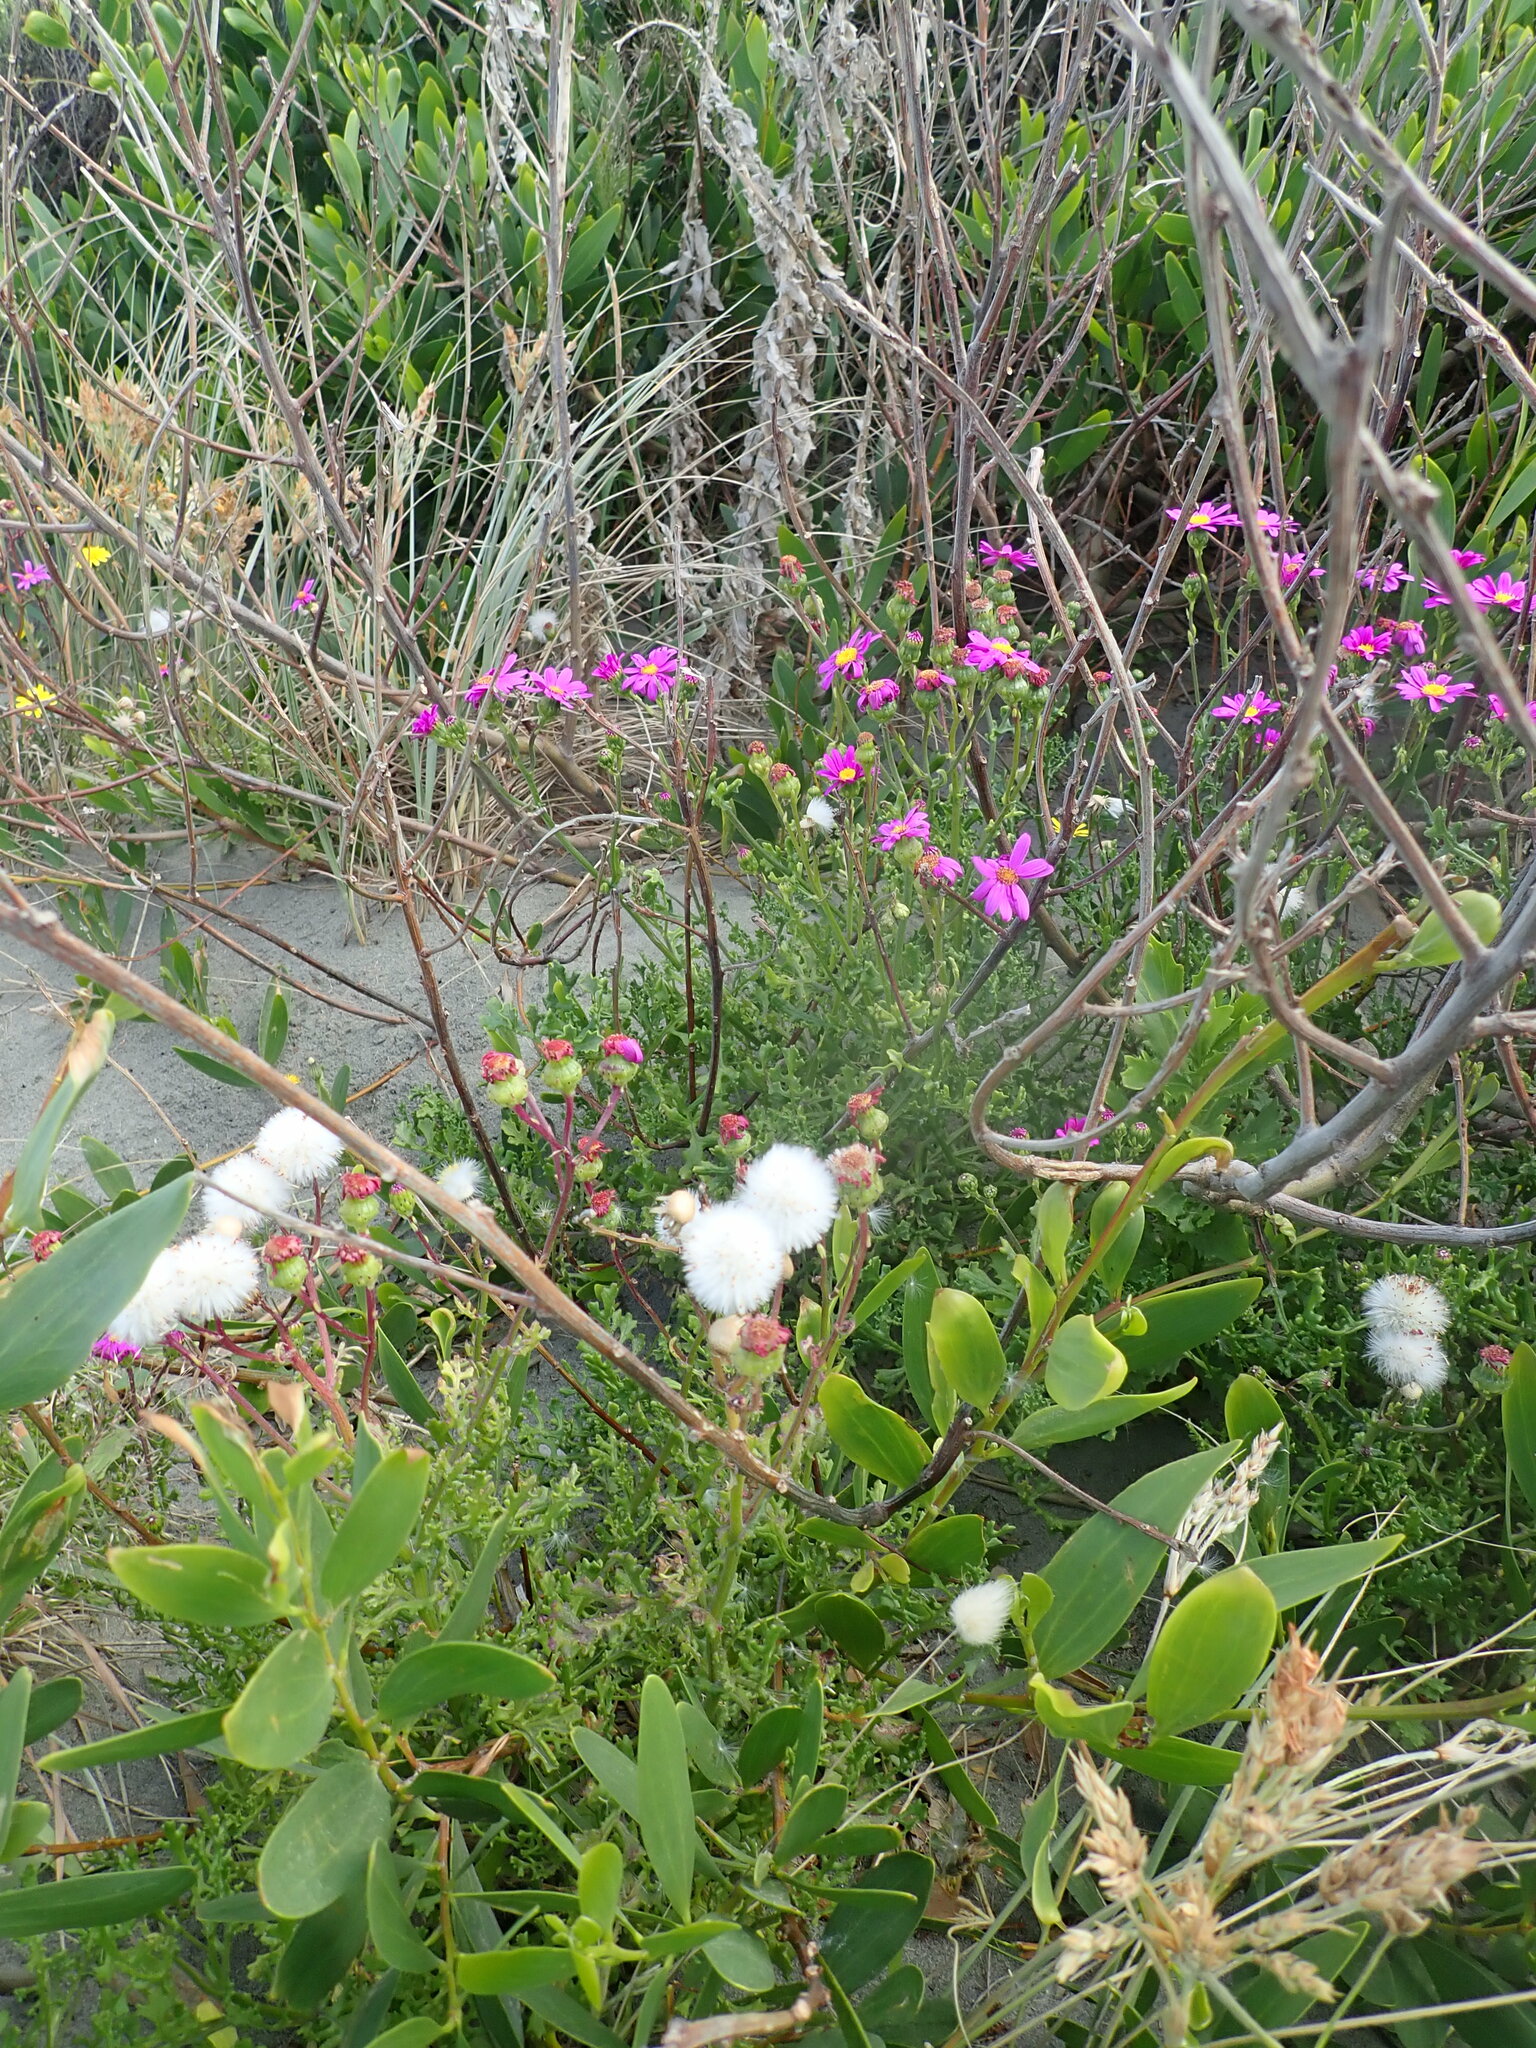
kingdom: Plantae
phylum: Tracheophyta
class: Magnoliopsida
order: Asterales
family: Asteraceae
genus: Senecio
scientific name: Senecio elegans
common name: Purple groundsel
